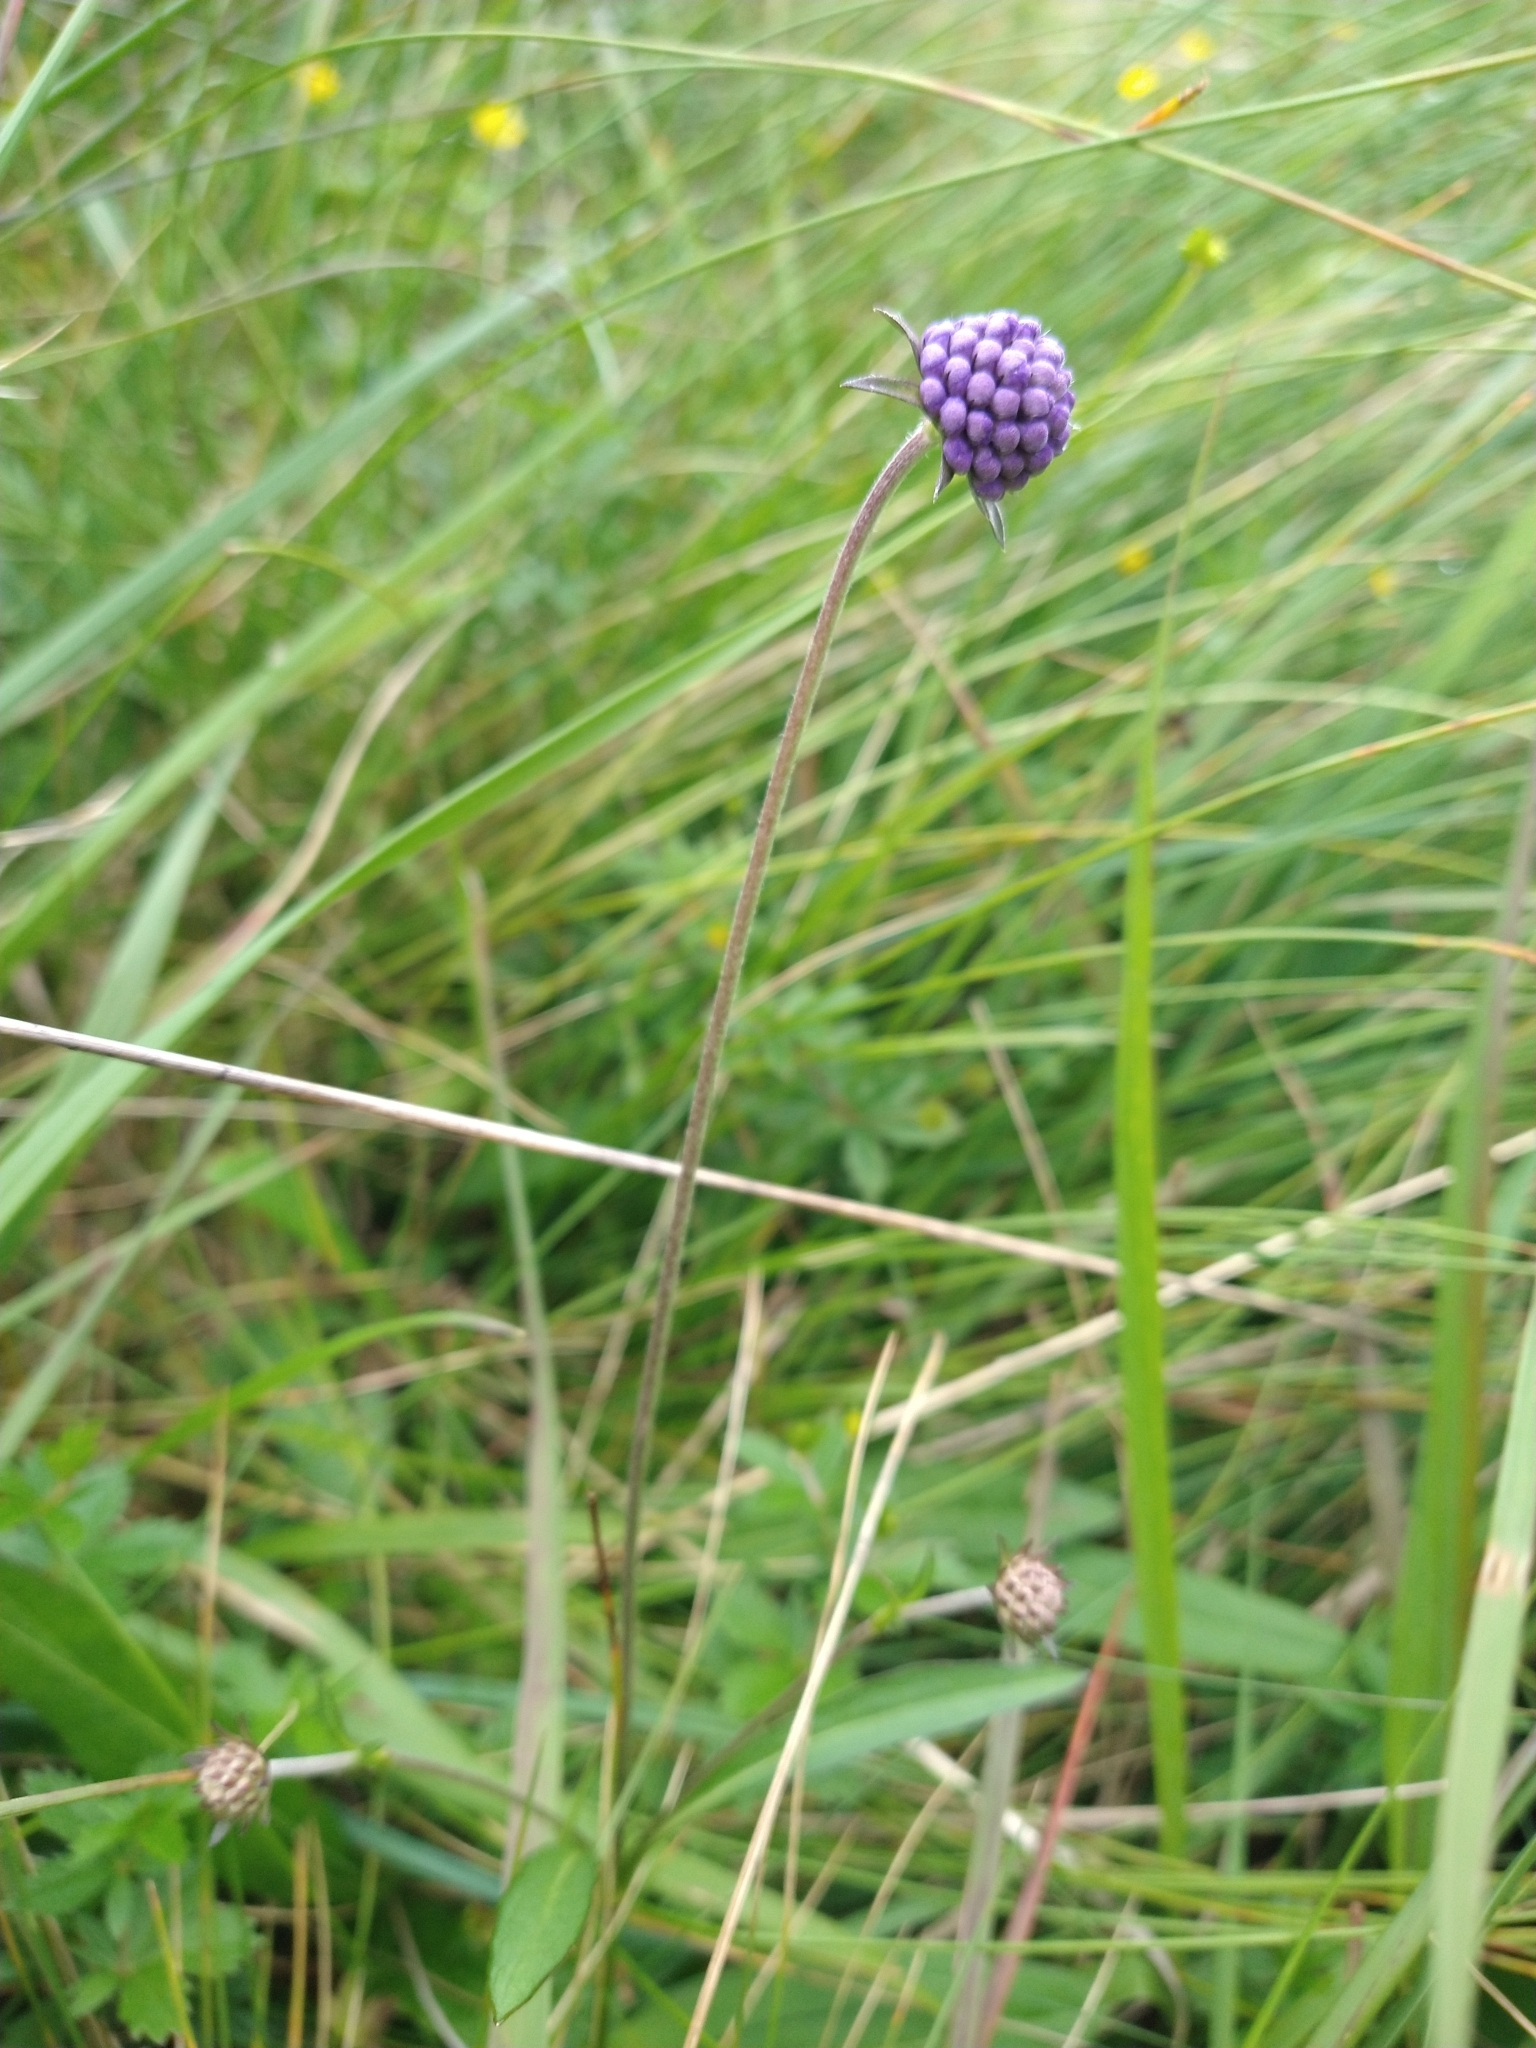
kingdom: Plantae
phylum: Tracheophyta
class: Magnoliopsida
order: Dipsacales
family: Caprifoliaceae
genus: Succisa
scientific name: Succisa pratensis
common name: Devil's-bit
